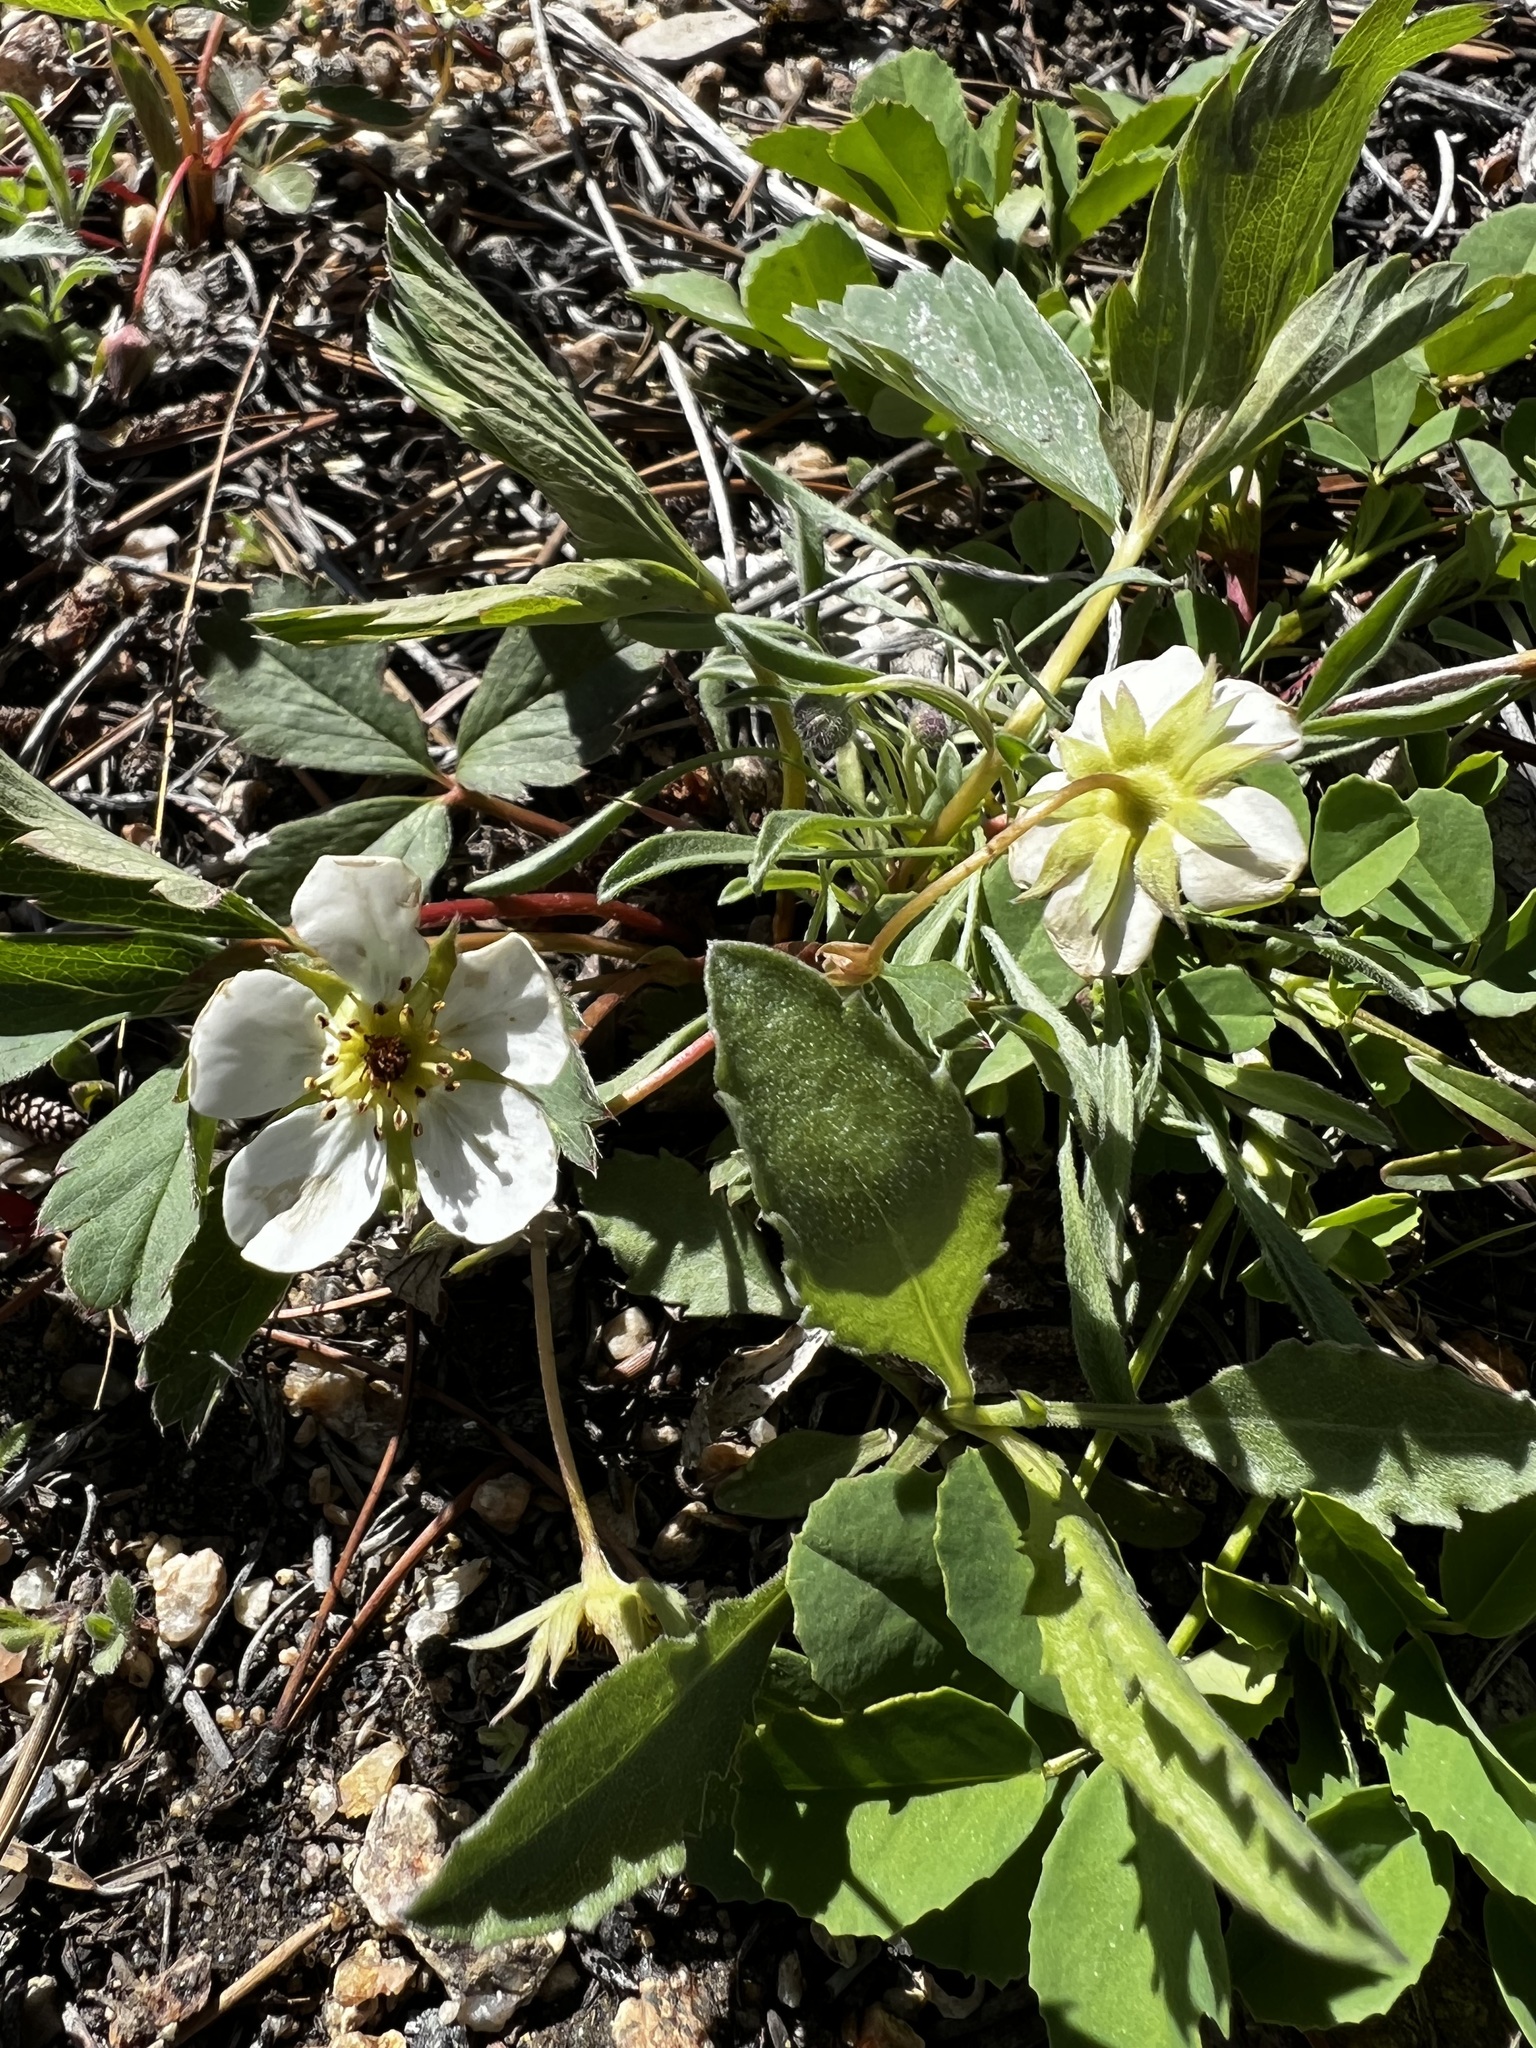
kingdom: Plantae
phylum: Tracheophyta
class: Magnoliopsida
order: Rosales
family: Rosaceae
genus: Fragaria
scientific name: Fragaria virginiana
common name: Thickleaved wild strawberry
